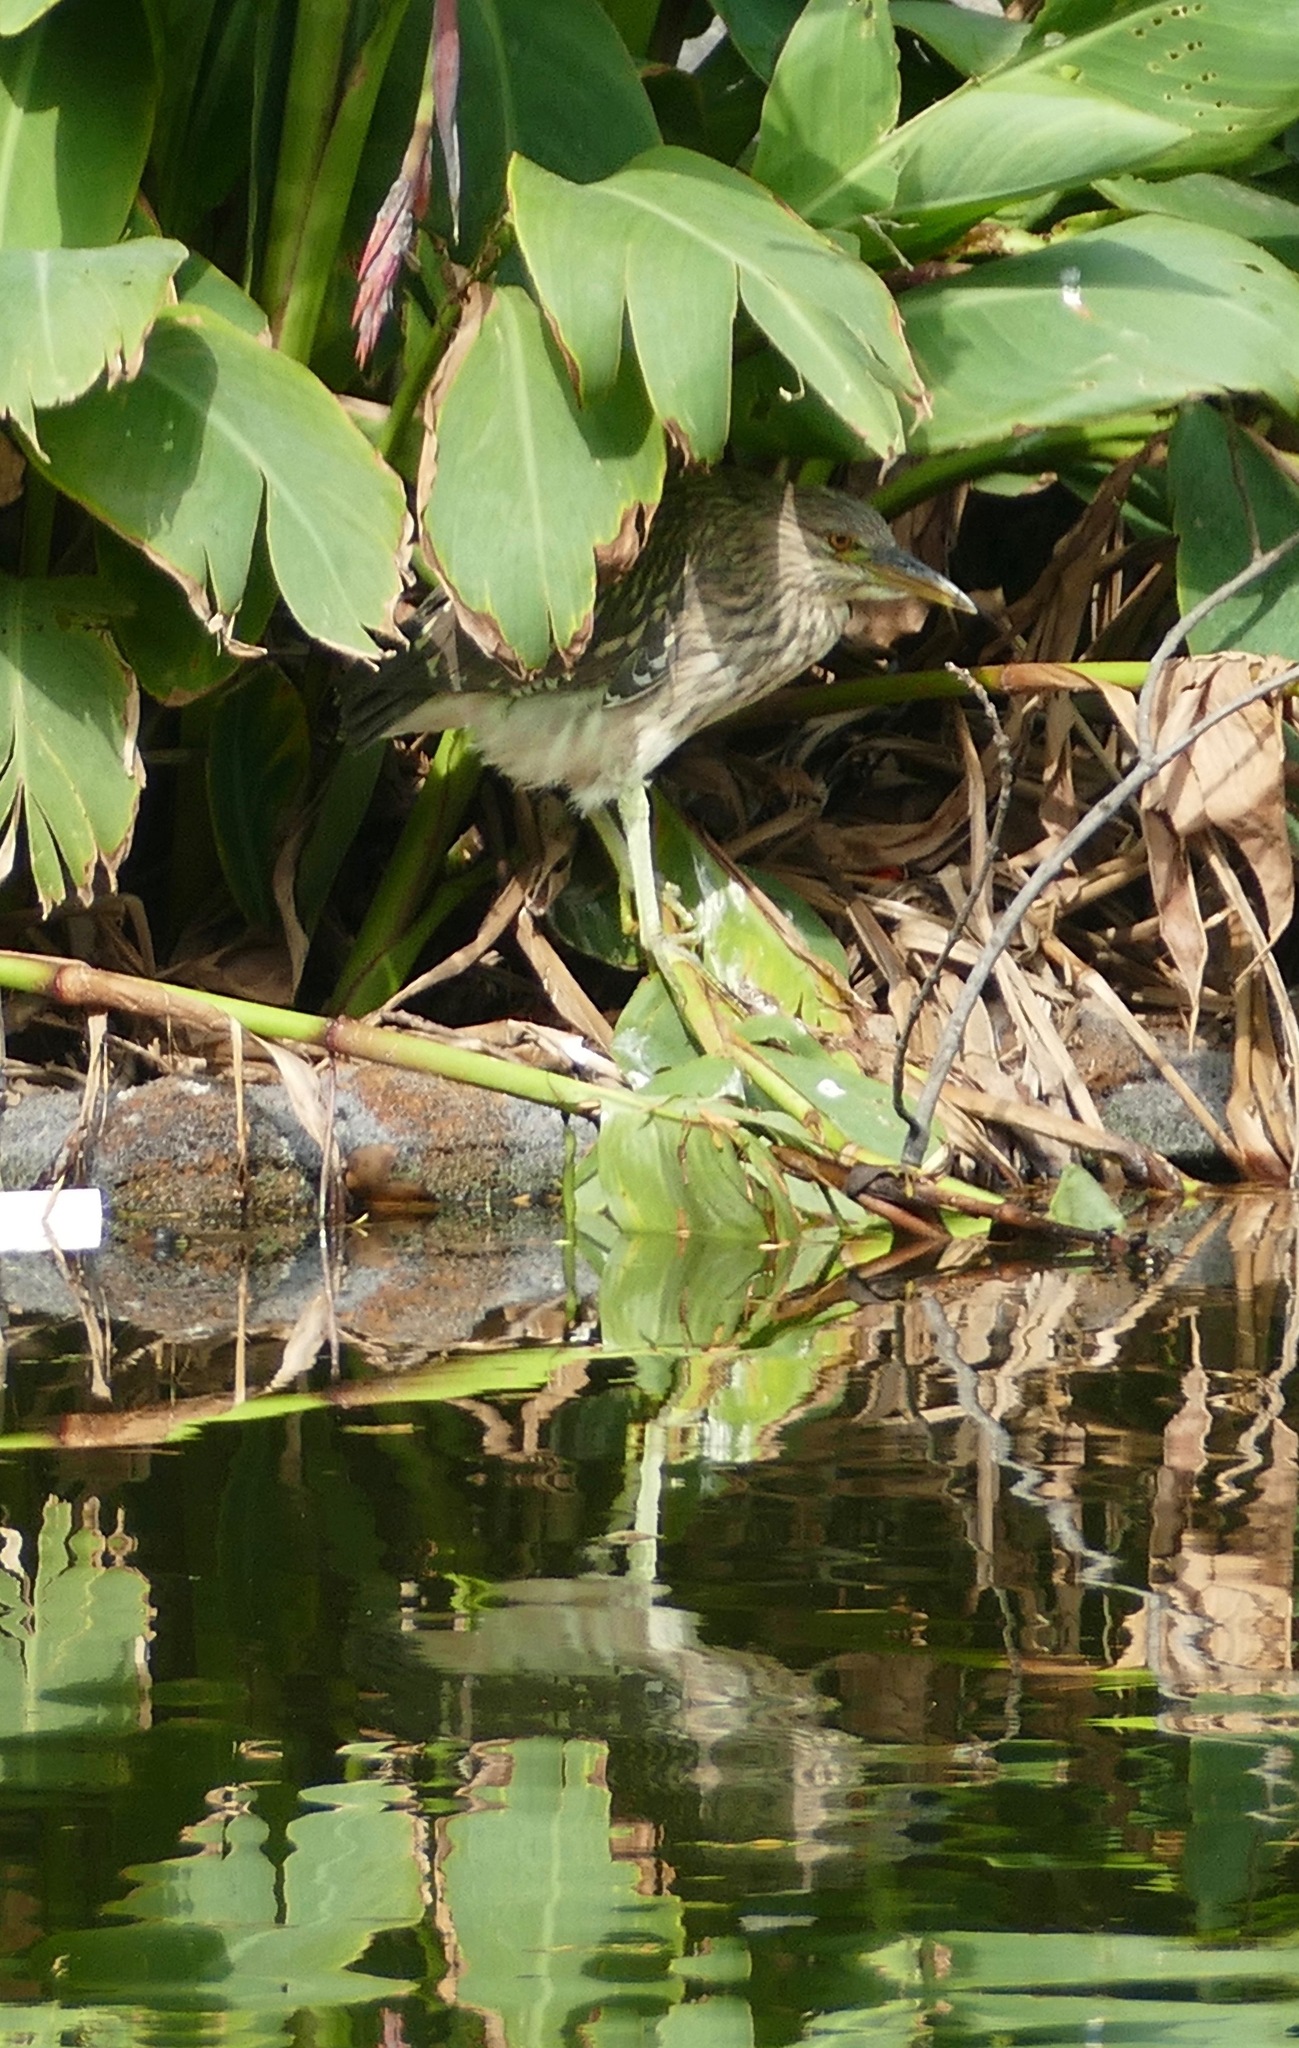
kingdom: Animalia
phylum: Chordata
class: Aves
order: Pelecaniformes
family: Ardeidae
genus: Nycticorax
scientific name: Nycticorax nycticorax
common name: Black-crowned night heron
